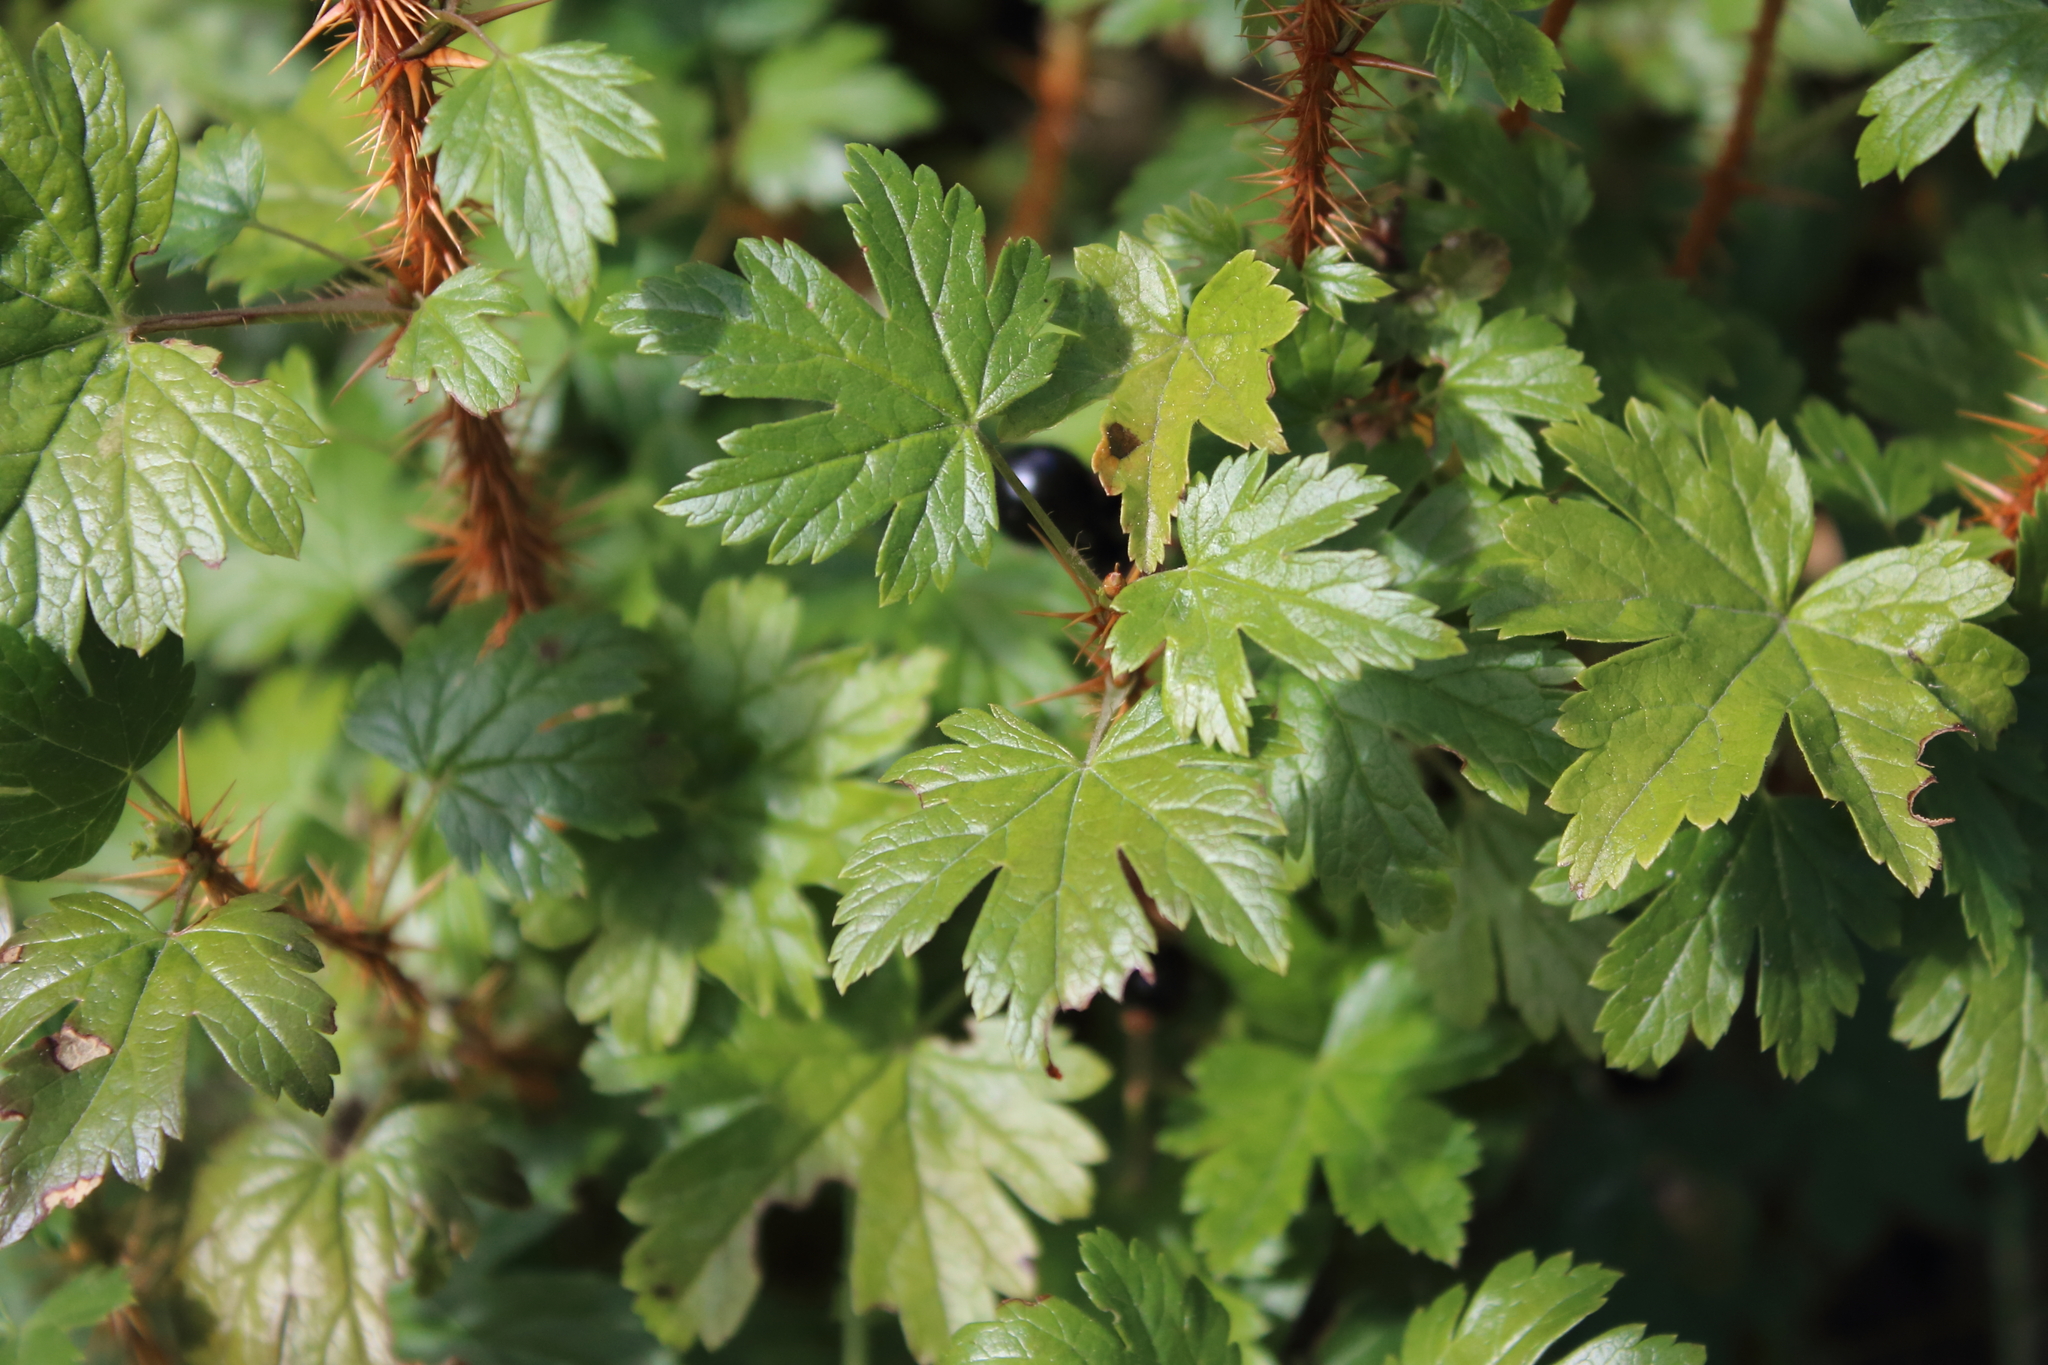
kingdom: Plantae
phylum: Tracheophyta
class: Magnoliopsida
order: Saxifragales
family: Grossulariaceae
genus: Ribes
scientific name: Ribes lacustre
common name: Black gooseberry
